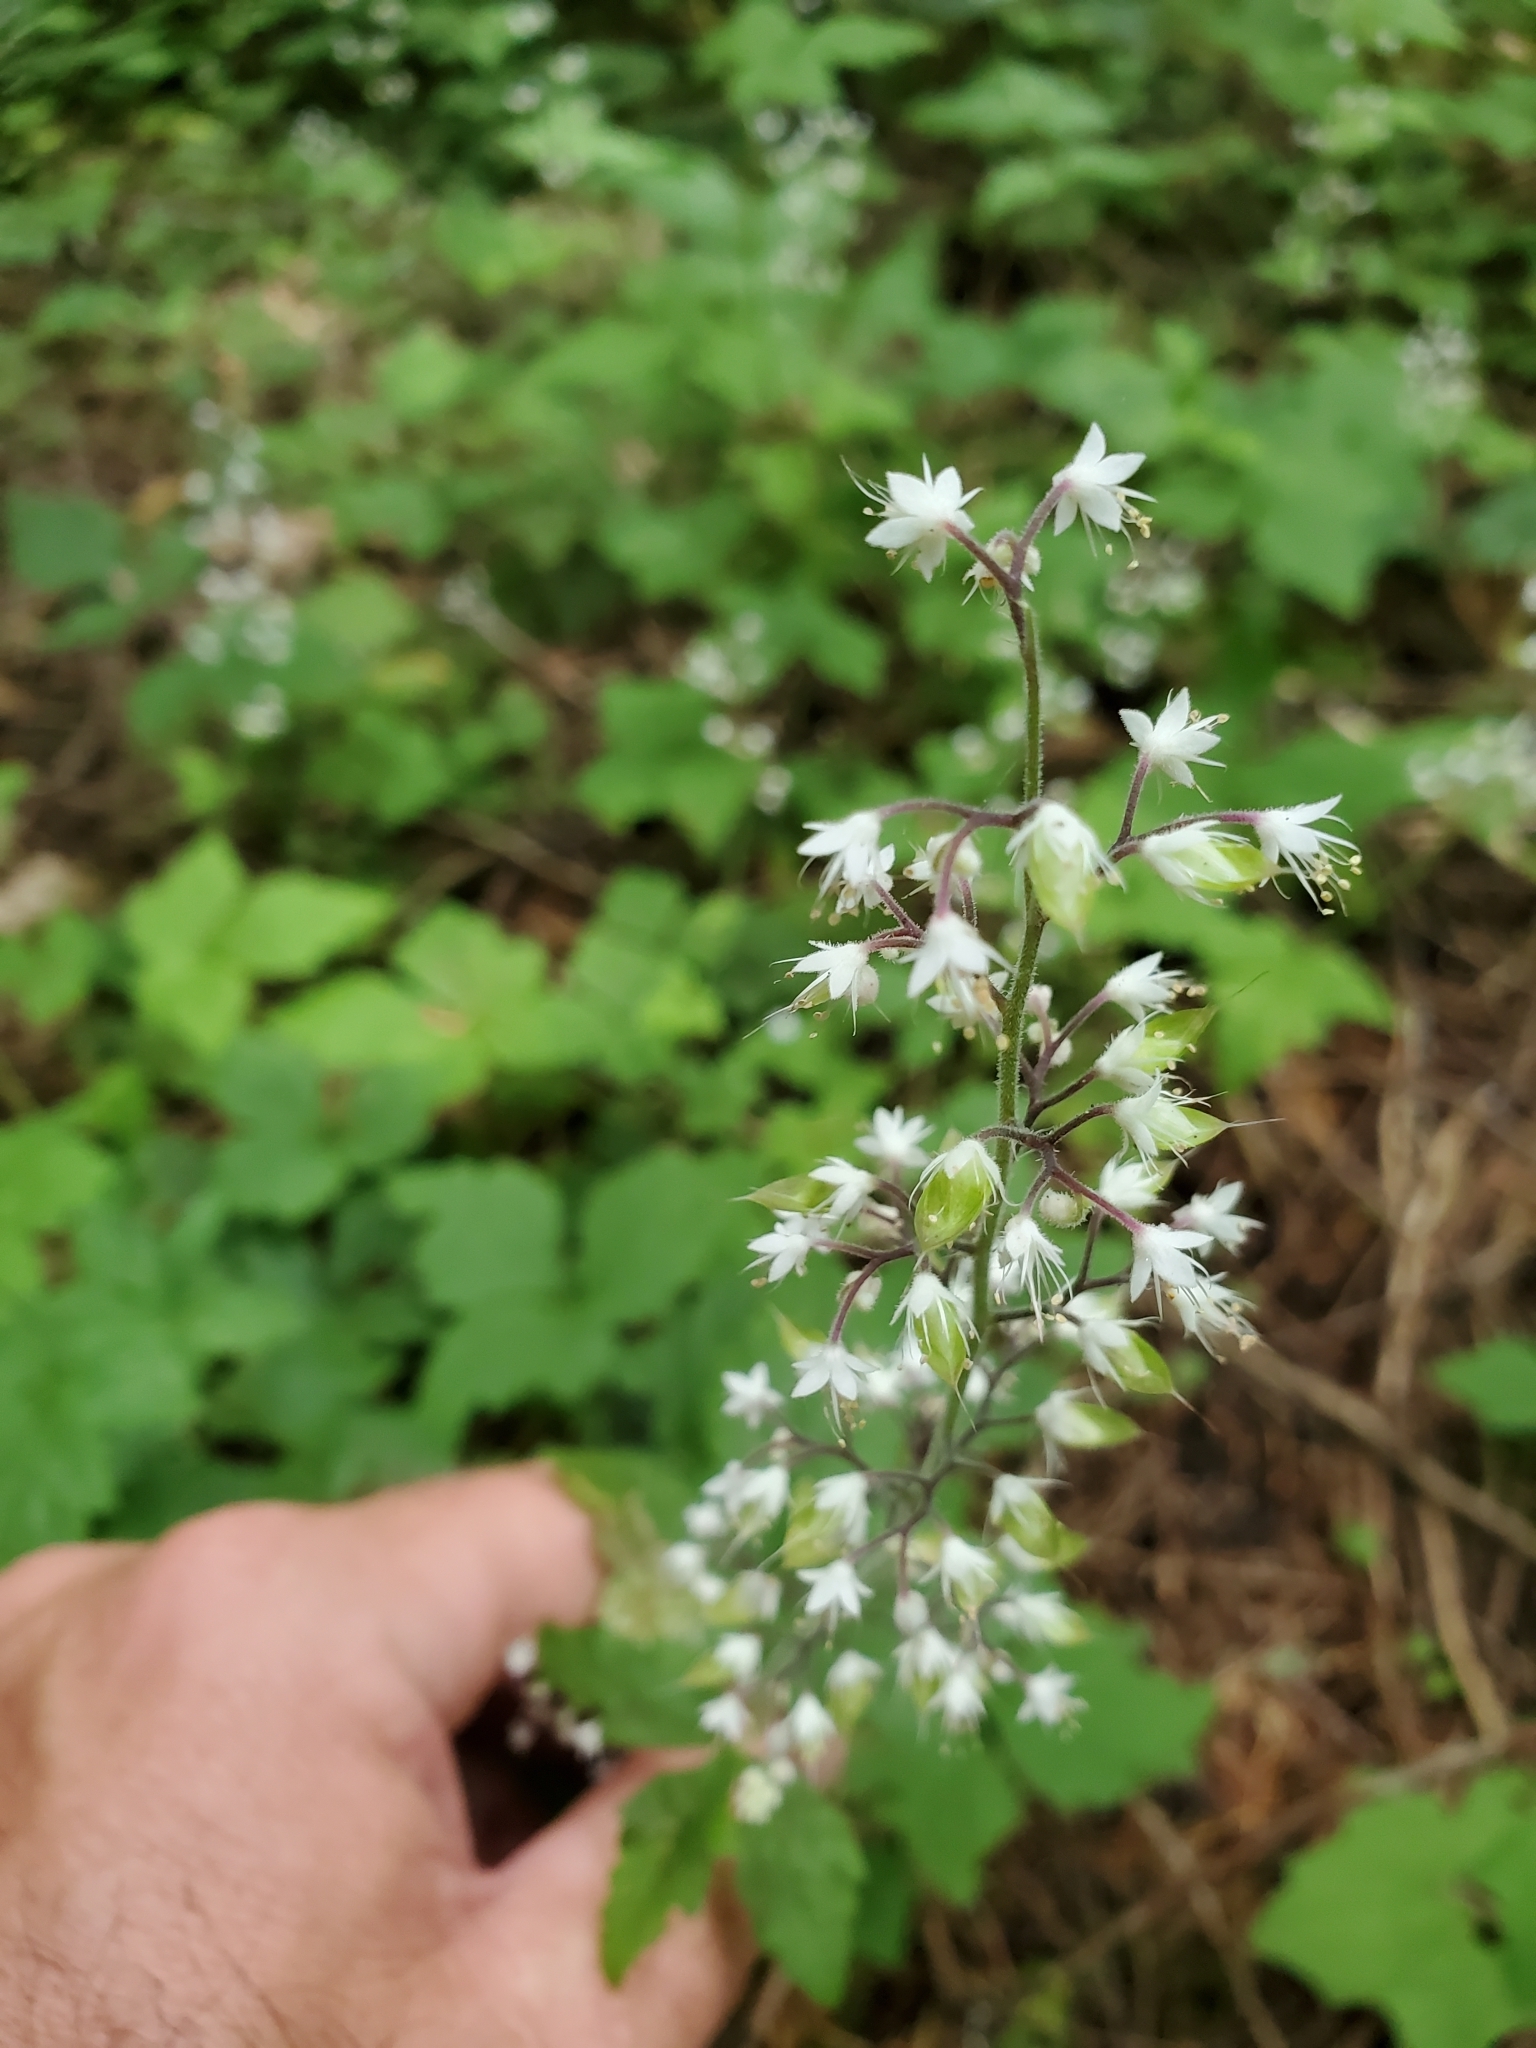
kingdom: Plantae
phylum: Tracheophyta
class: Magnoliopsida
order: Saxifragales
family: Saxifragaceae
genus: Tiarella
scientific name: Tiarella trifoliata
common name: Sugar-scoop
